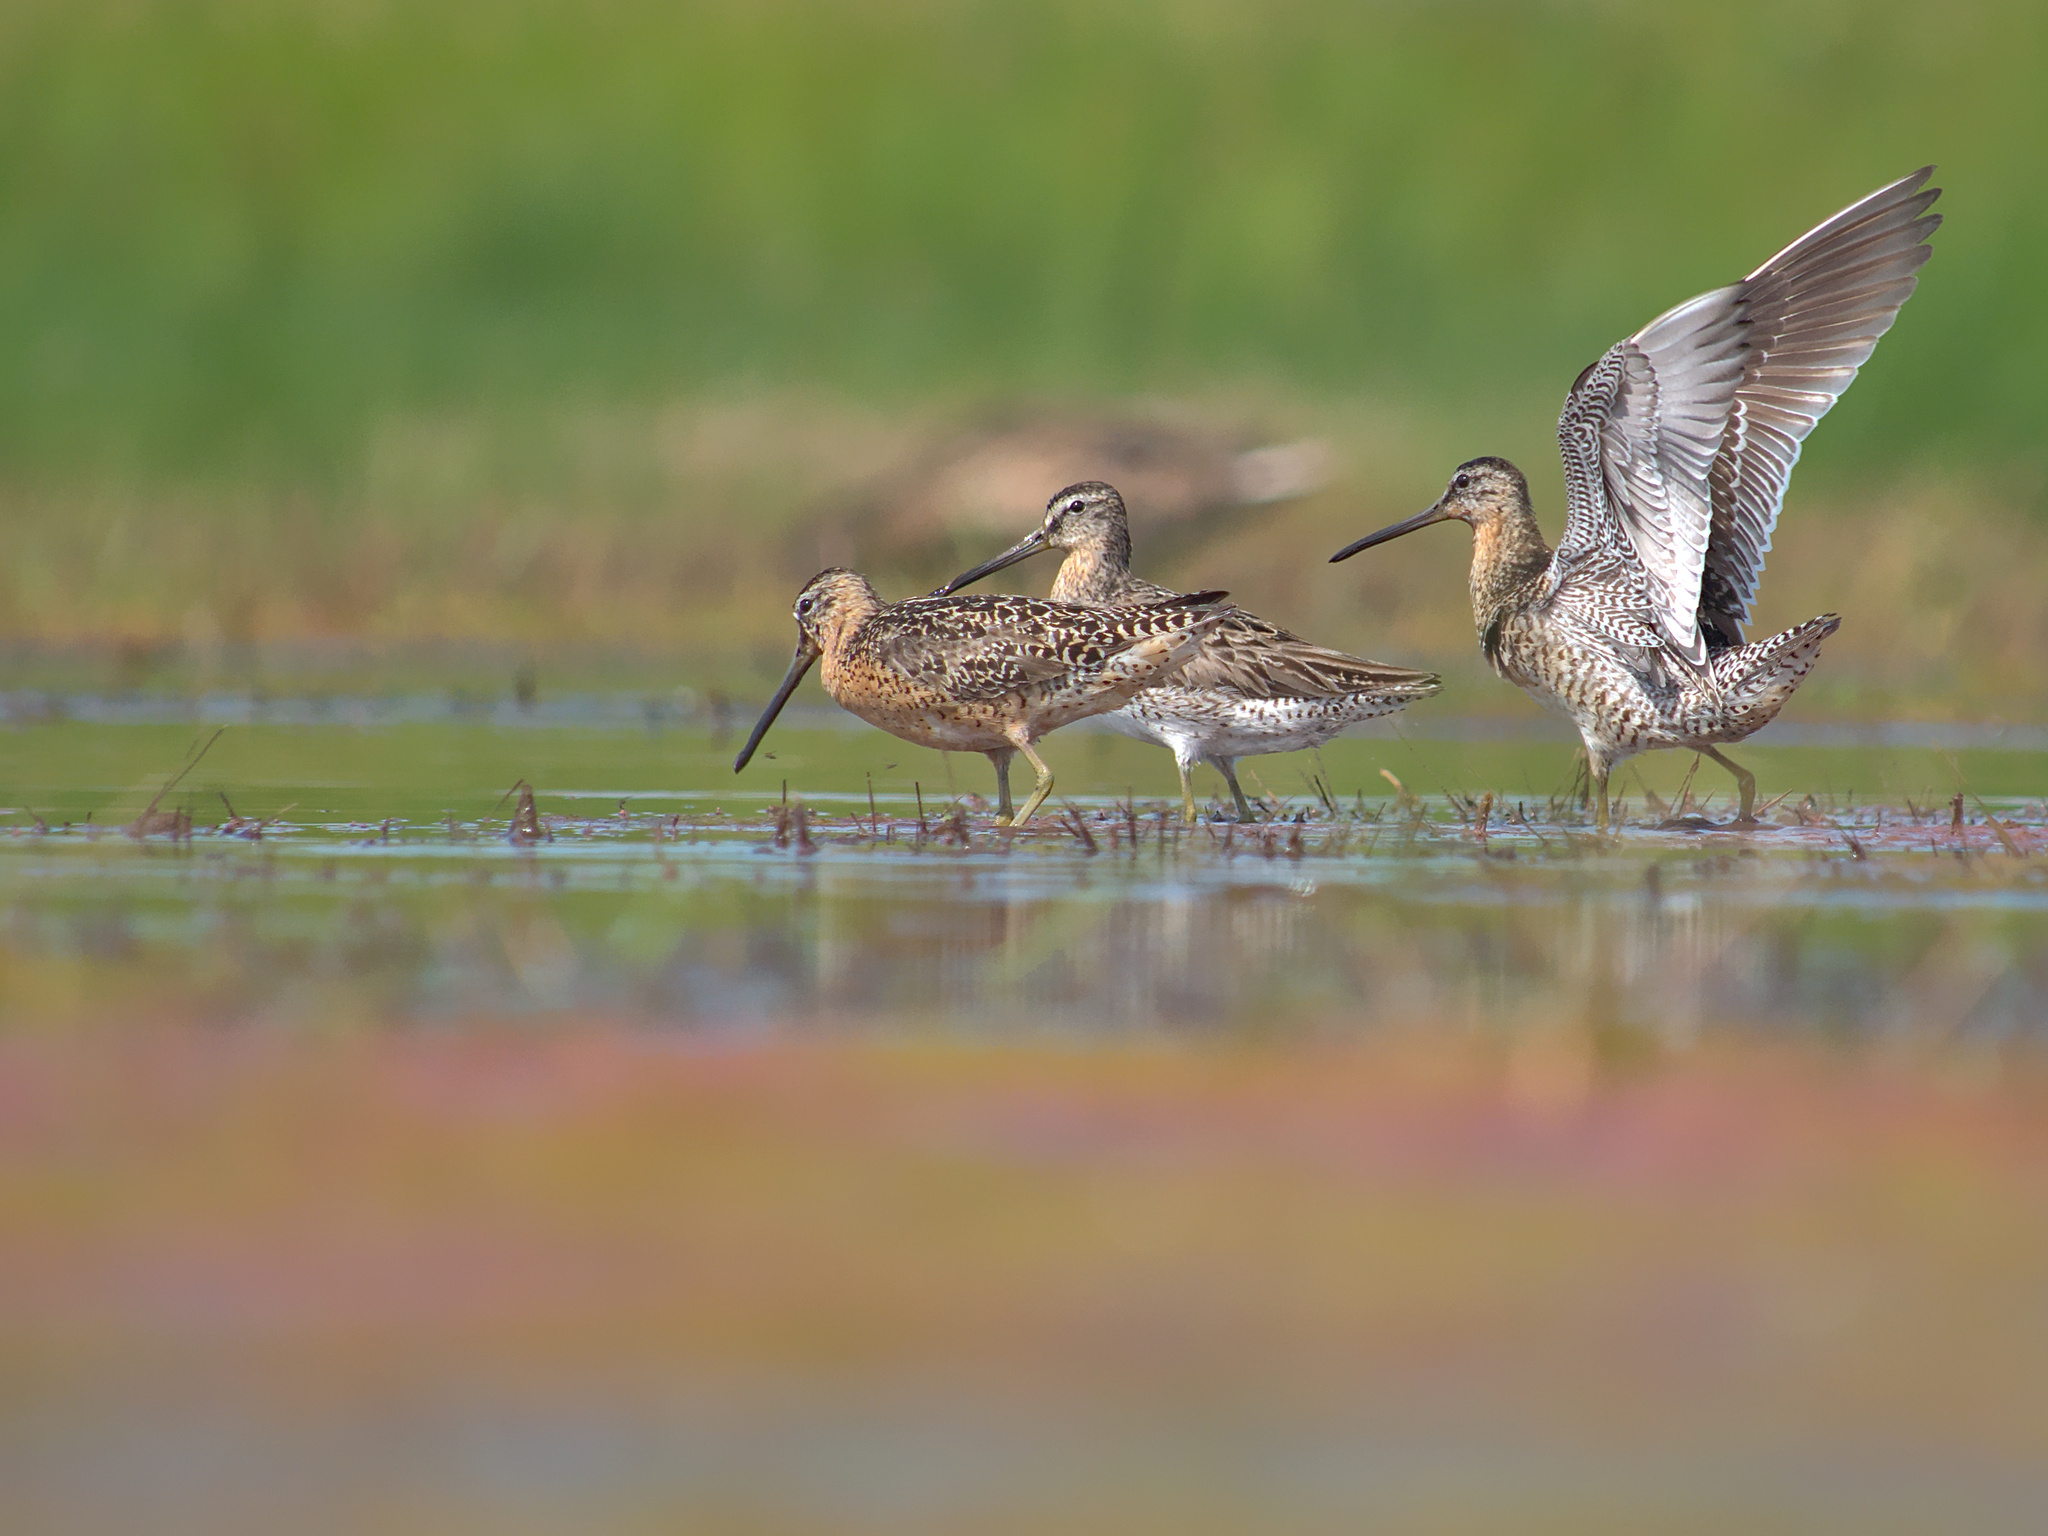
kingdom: Animalia
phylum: Chordata
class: Aves
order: Charadriiformes
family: Scolopacidae
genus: Limnodromus
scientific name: Limnodromus griseus
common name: Short-billed dowitcher
